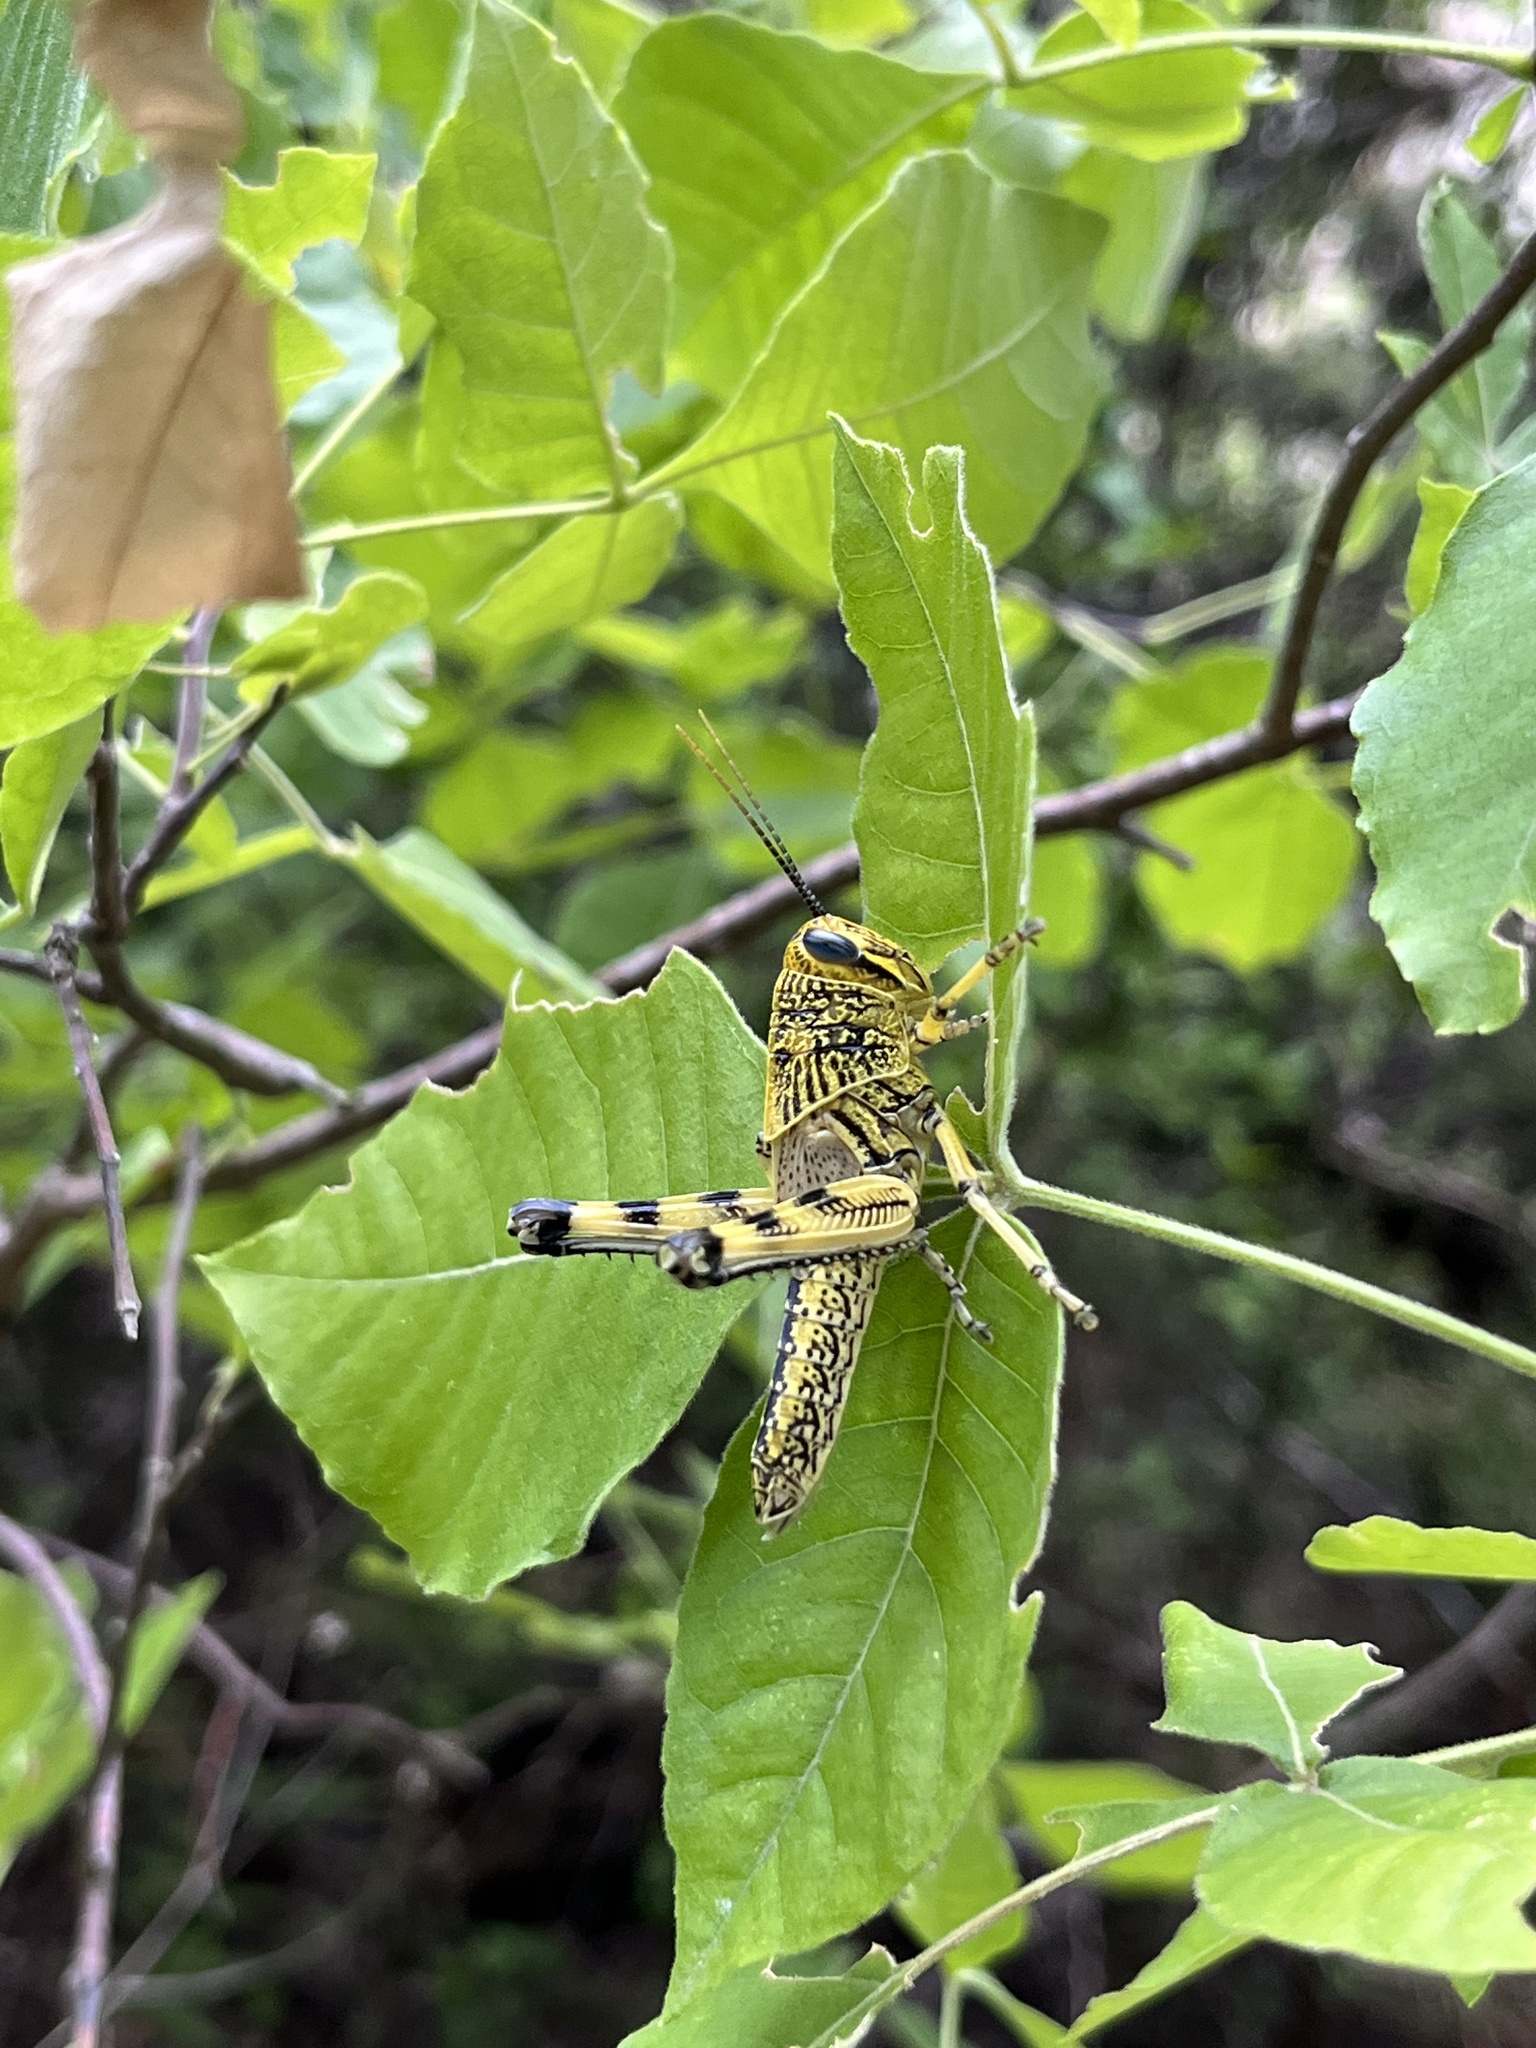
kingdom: Animalia
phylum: Arthropoda
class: Insecta
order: Orthoptera
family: Acrididae
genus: Schistocerca
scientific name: Schistocerca lineata
